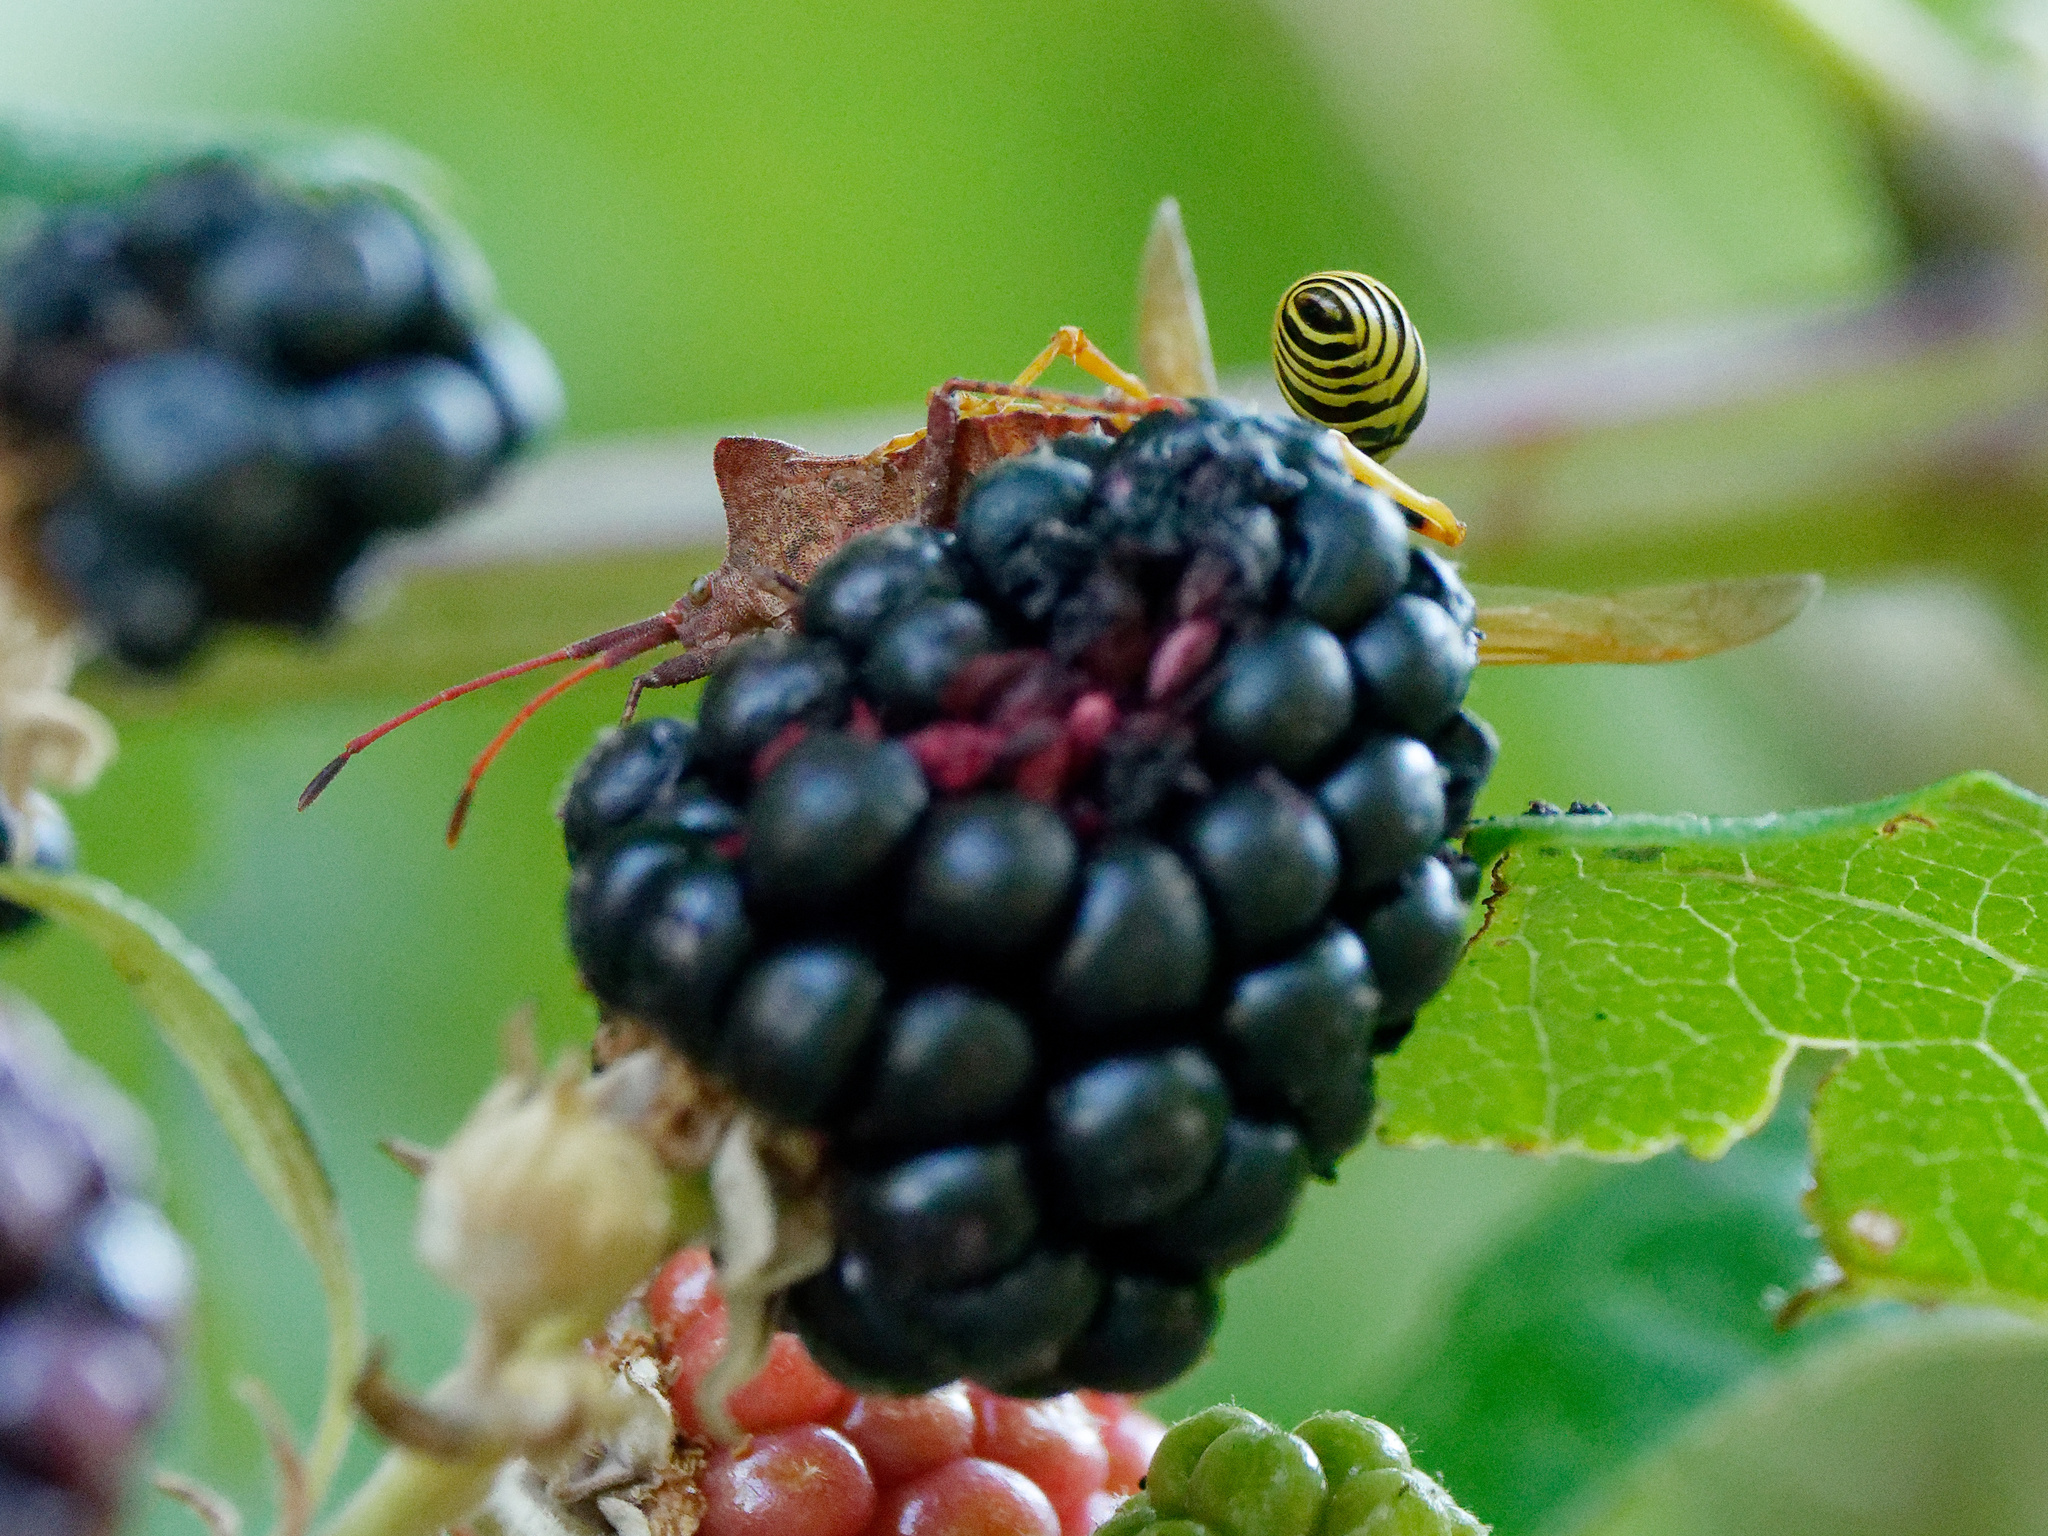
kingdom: Animalia
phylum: Arthropoda
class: Insecta
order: Hemiptera
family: Coreidae
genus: Coreus
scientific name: Coreus marginatus
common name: Dock bug
